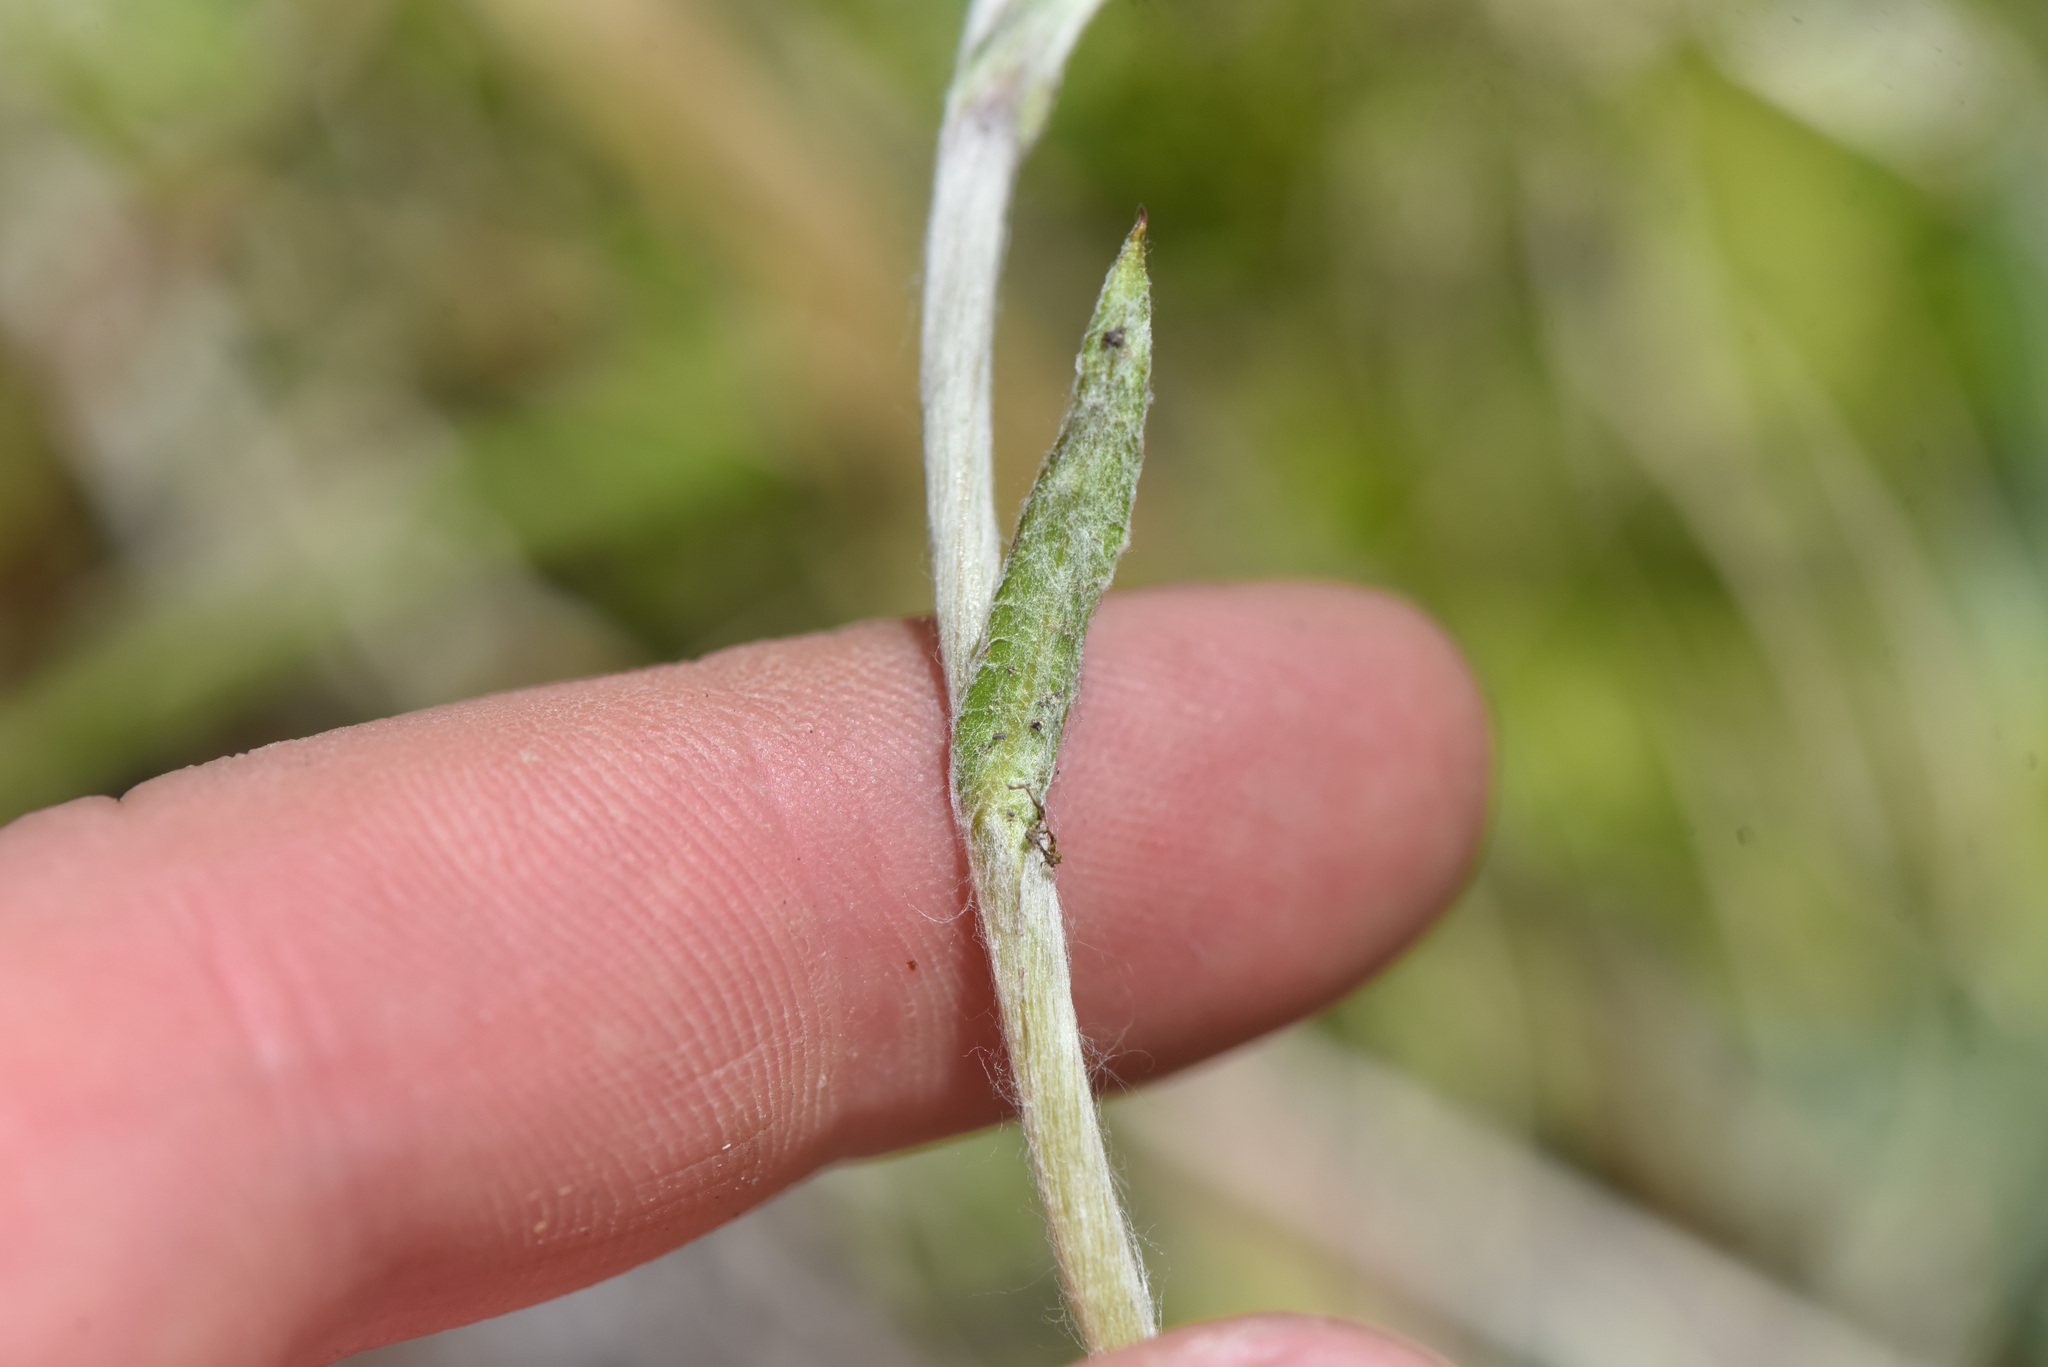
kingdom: Plantae
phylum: Tracheophyta
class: Magnoliopsida
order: Asterales
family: Asteraceae
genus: Antennaria
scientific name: Antennaria howellii
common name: Howell's pussytoes
